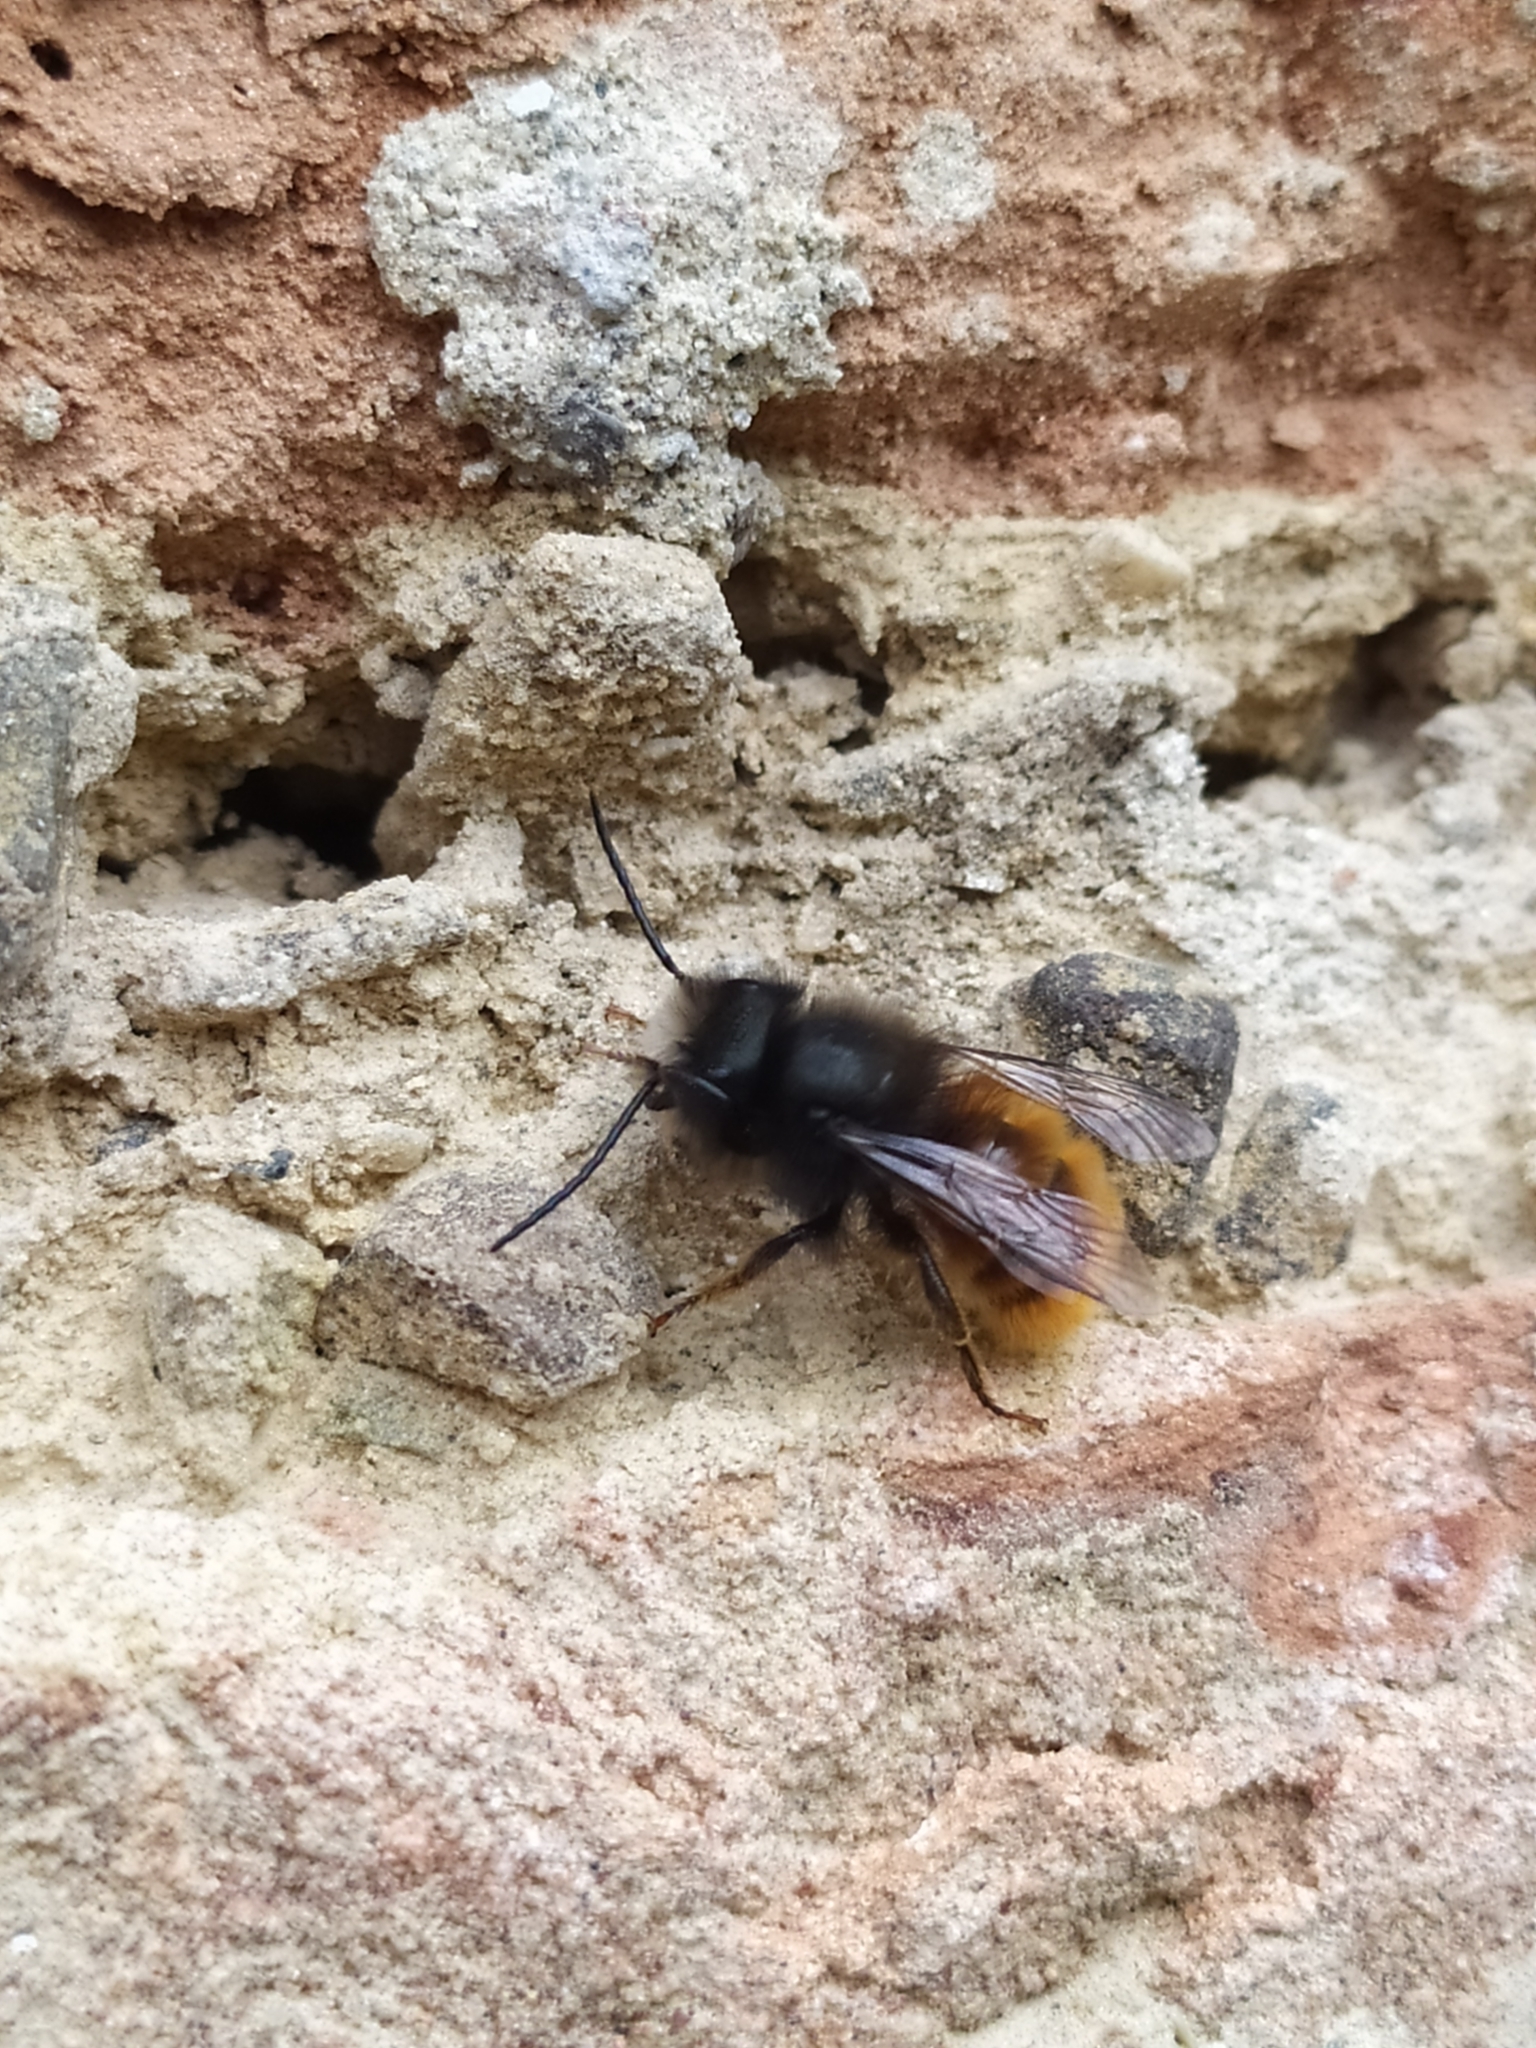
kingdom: Animalia
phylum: Arthropoda
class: Insecta
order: Hymenoptera
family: Megachilidae
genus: Osmia
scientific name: Osmia cornuta
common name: Mason bee
